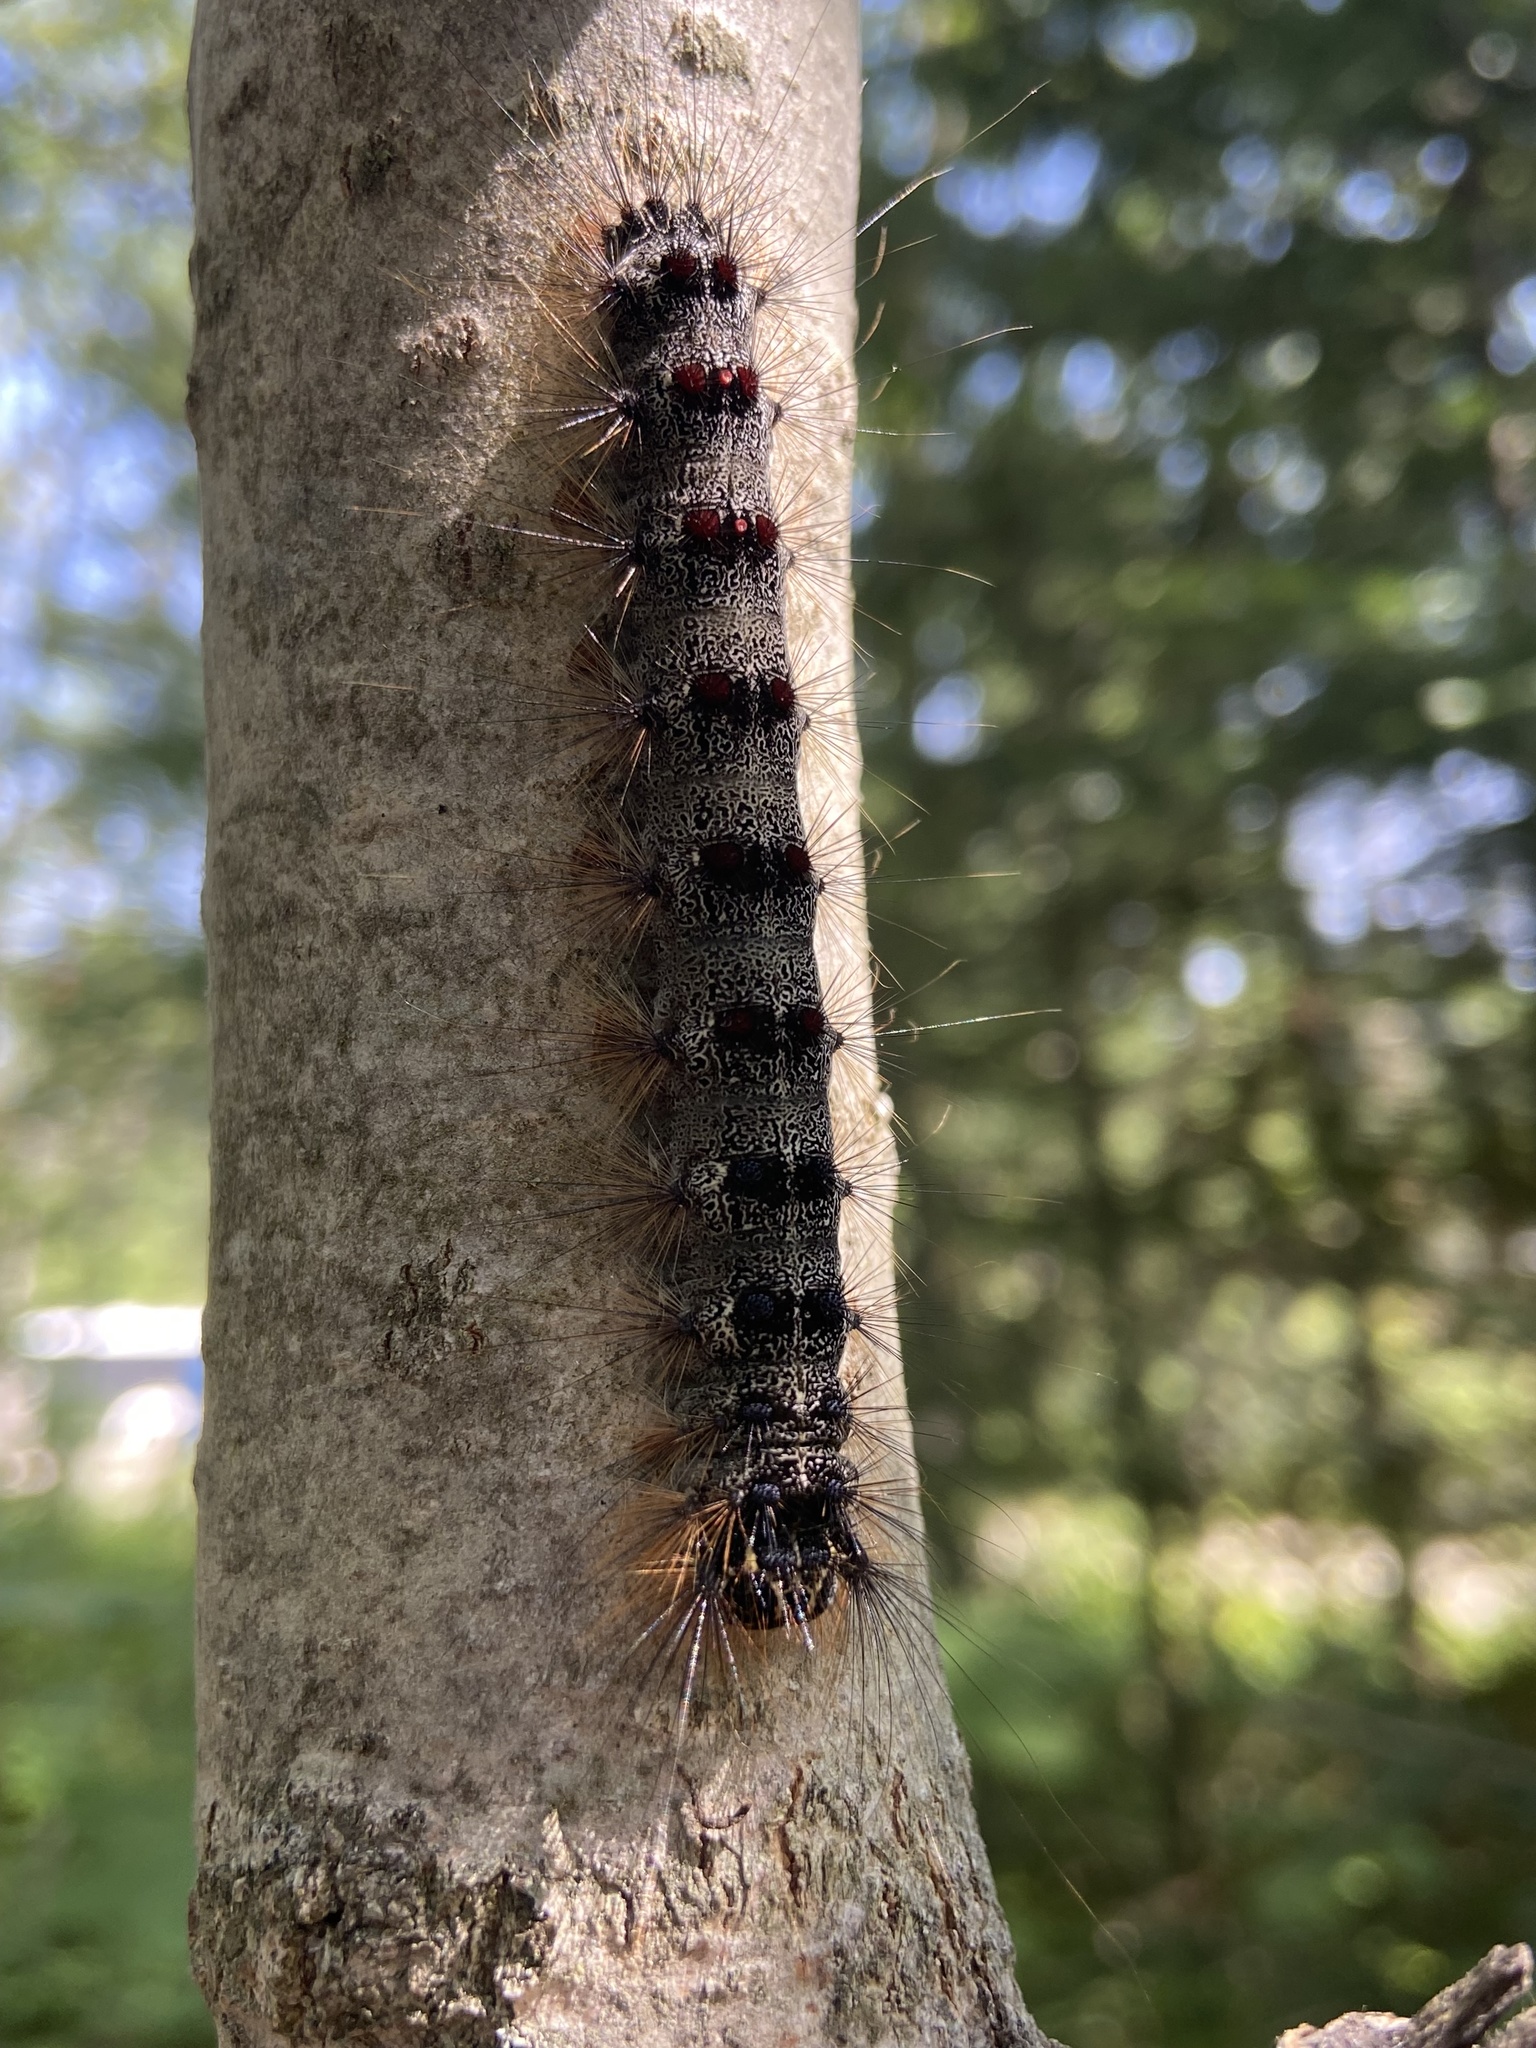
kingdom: Animalia
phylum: Arthropoda
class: Insecta
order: Lepidoptera
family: Erebidae
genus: Lymantria
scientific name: Lymantria dispar
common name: Gypsy moth
